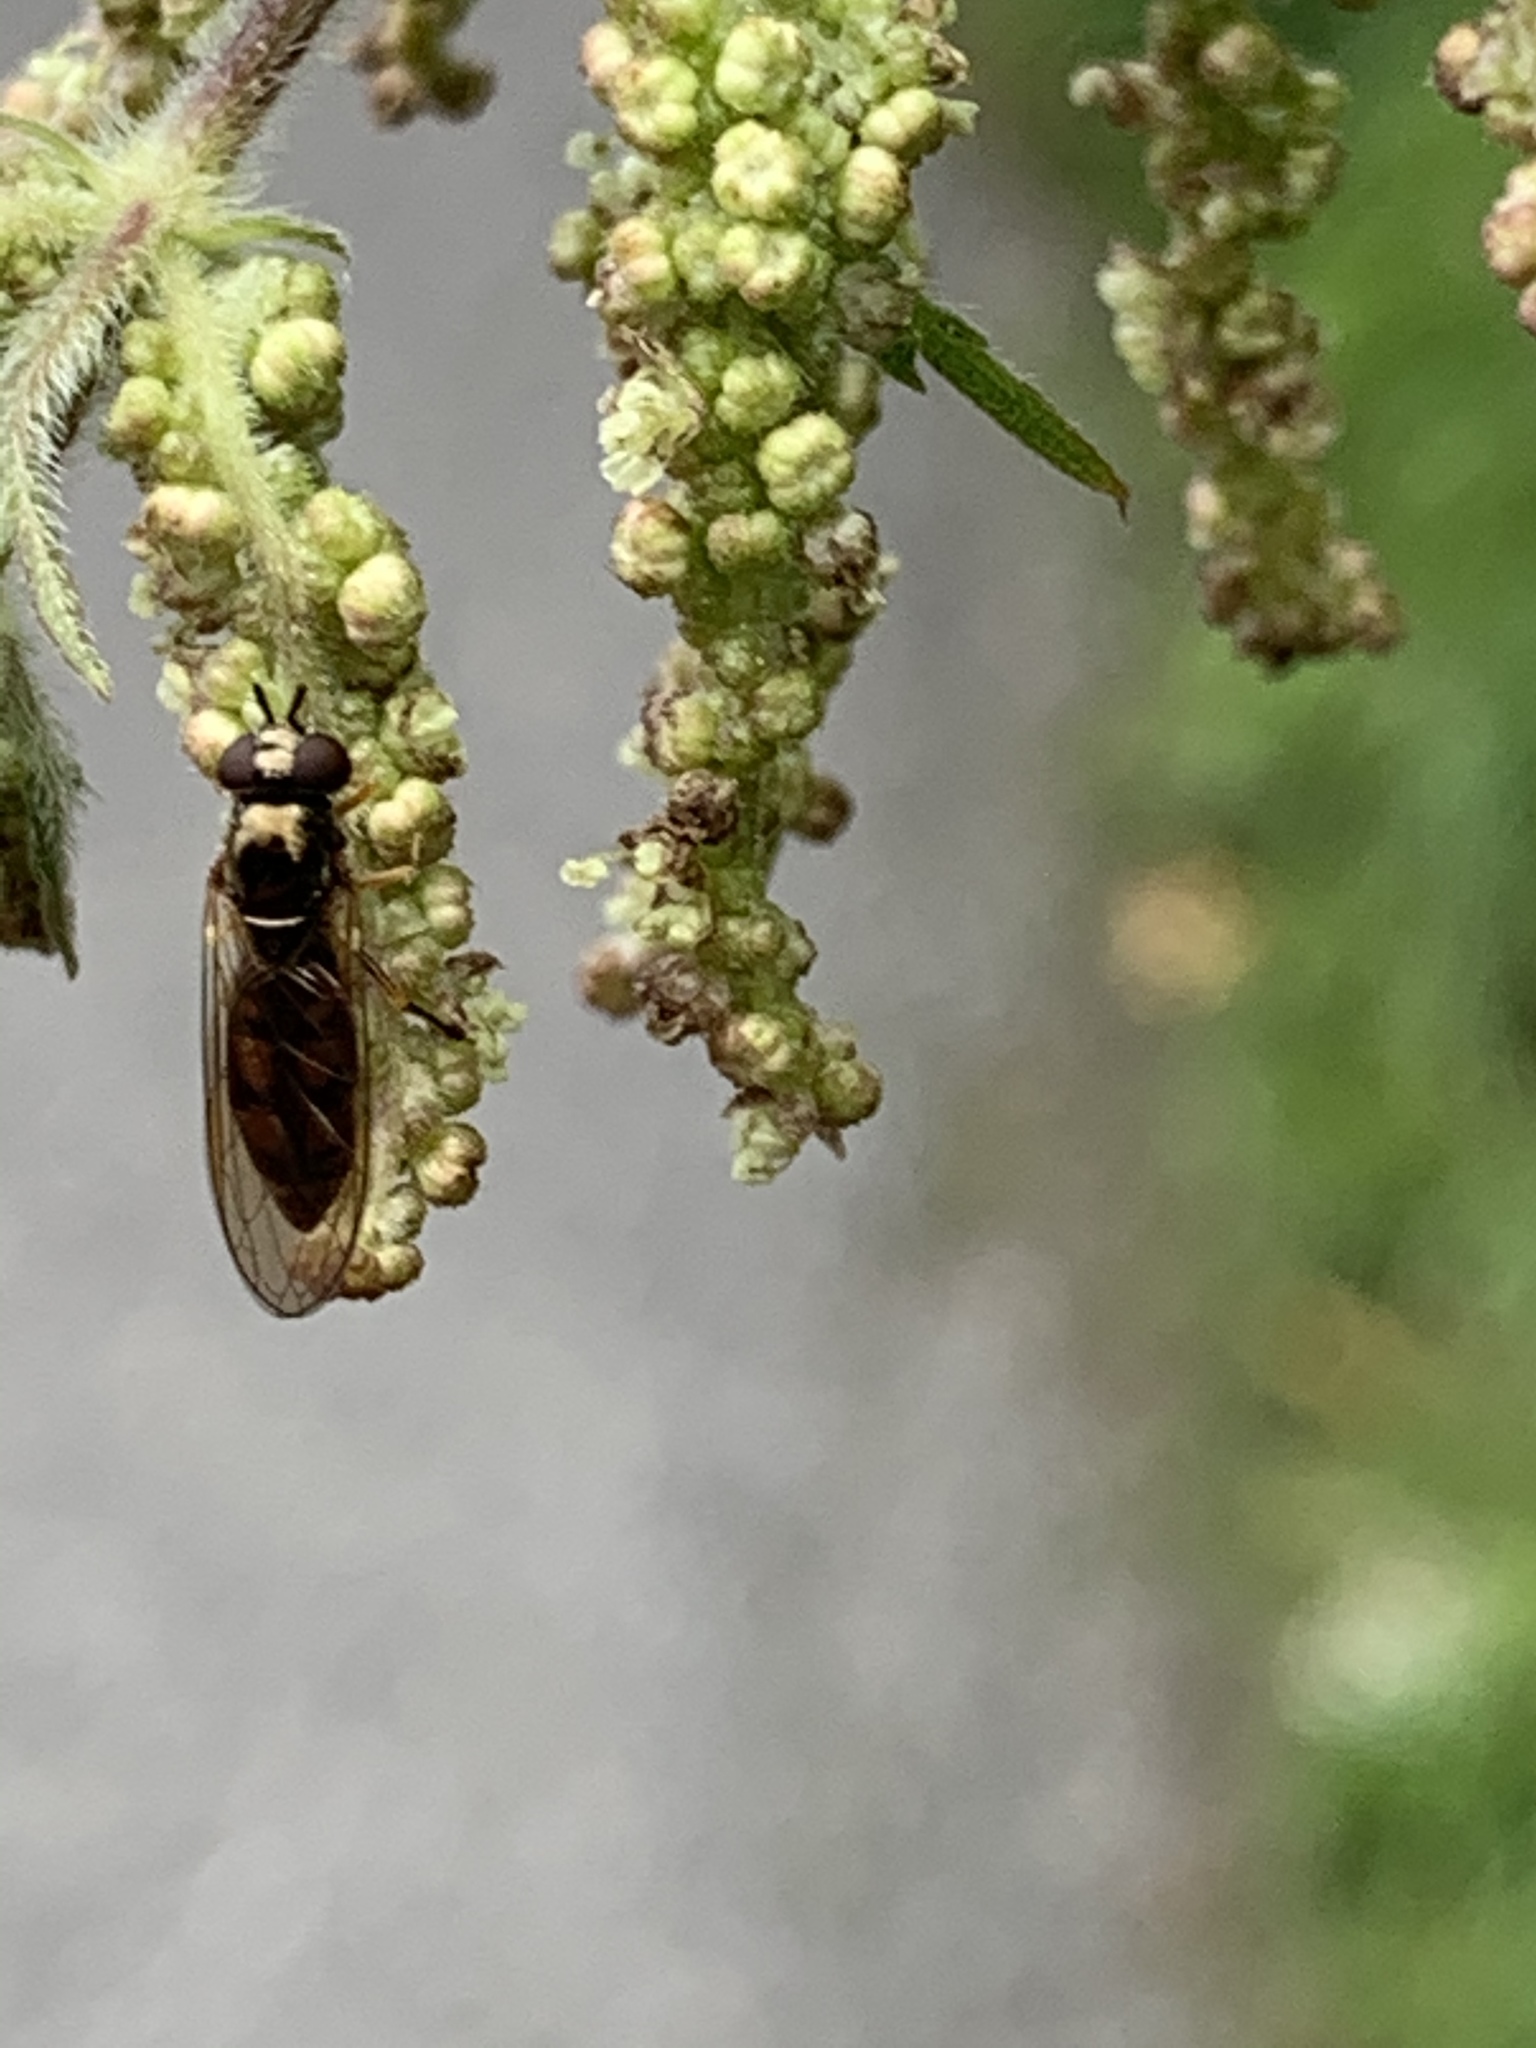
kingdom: Animalia
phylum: Arthropoda
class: Insecta
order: Diptera
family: Syrphidae
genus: Melanostoma
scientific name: Melanostoma
